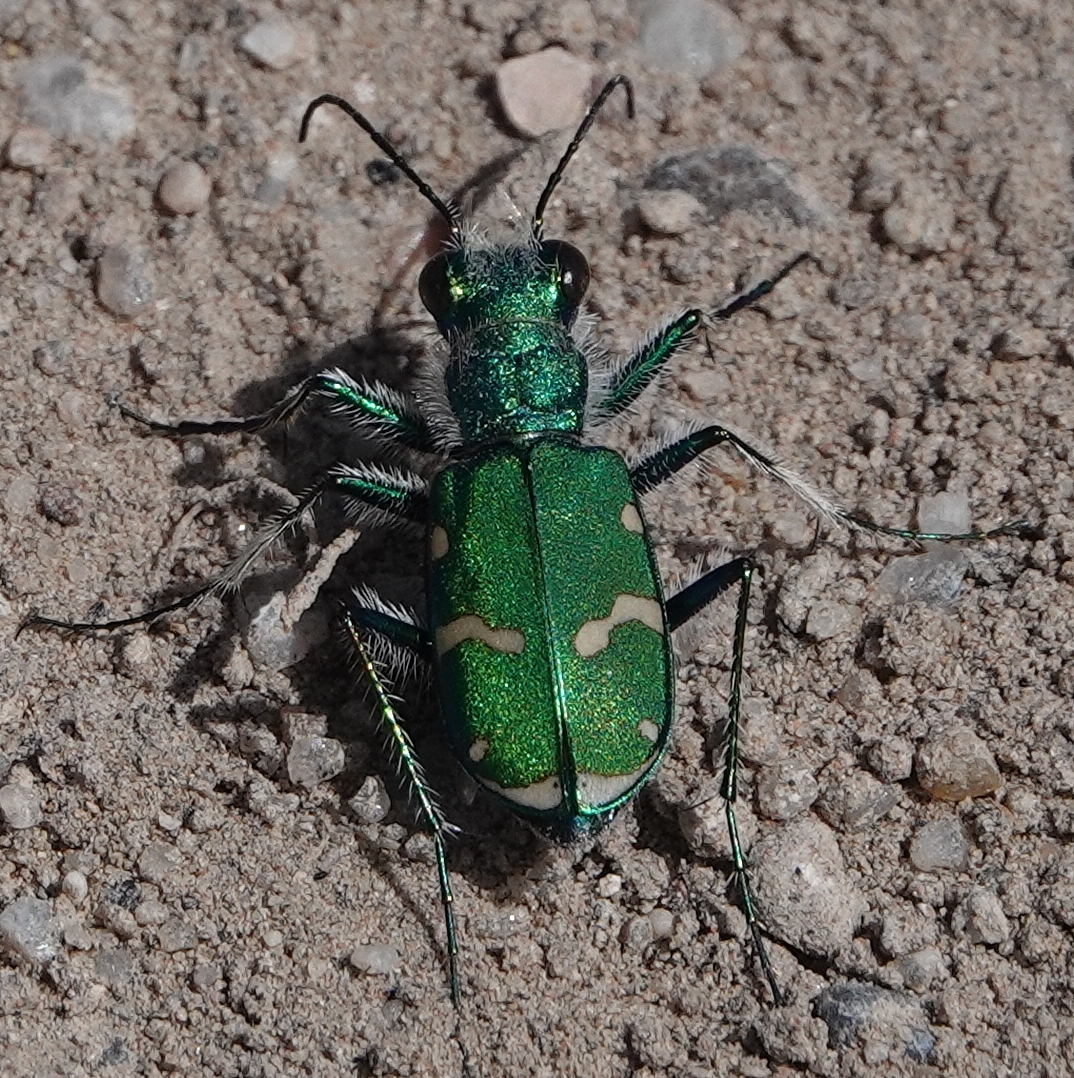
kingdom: Animalia
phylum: Arthropoda
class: Insecta
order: Coleoptera
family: Carabidae
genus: Cicindela
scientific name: Cicindela denverensis
